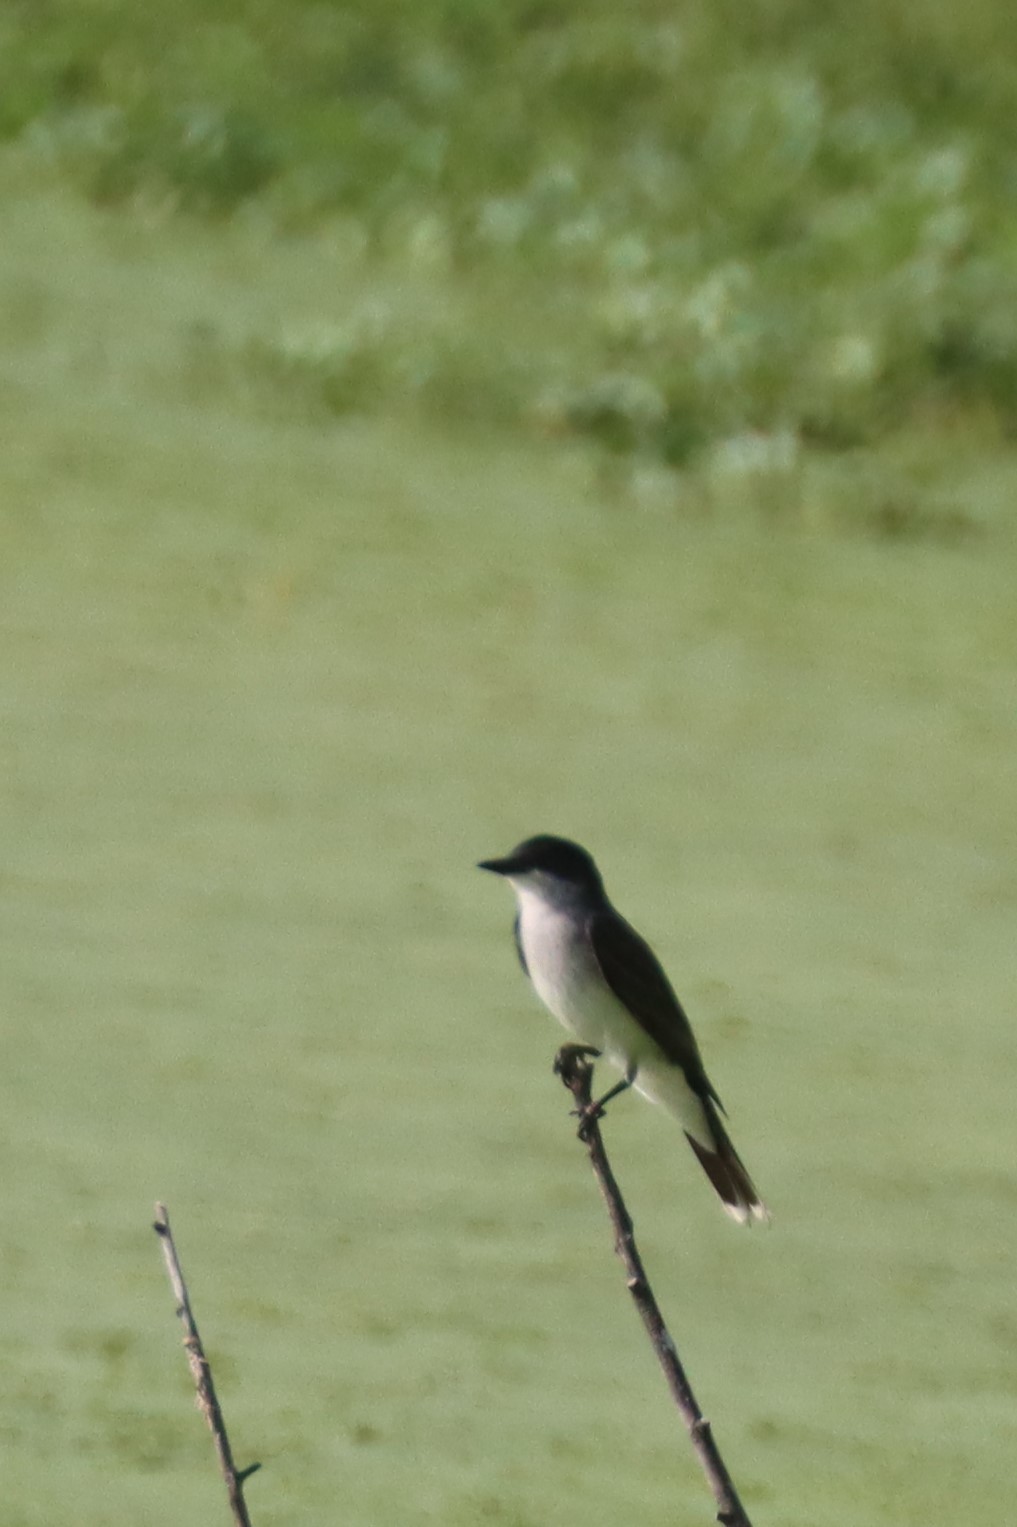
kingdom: Animalia
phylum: Chordata
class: Aves
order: Passeriformes
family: Tyrannidae
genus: Tyrannus
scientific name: Tyrannus tyrannus
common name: Eastern kingbird
